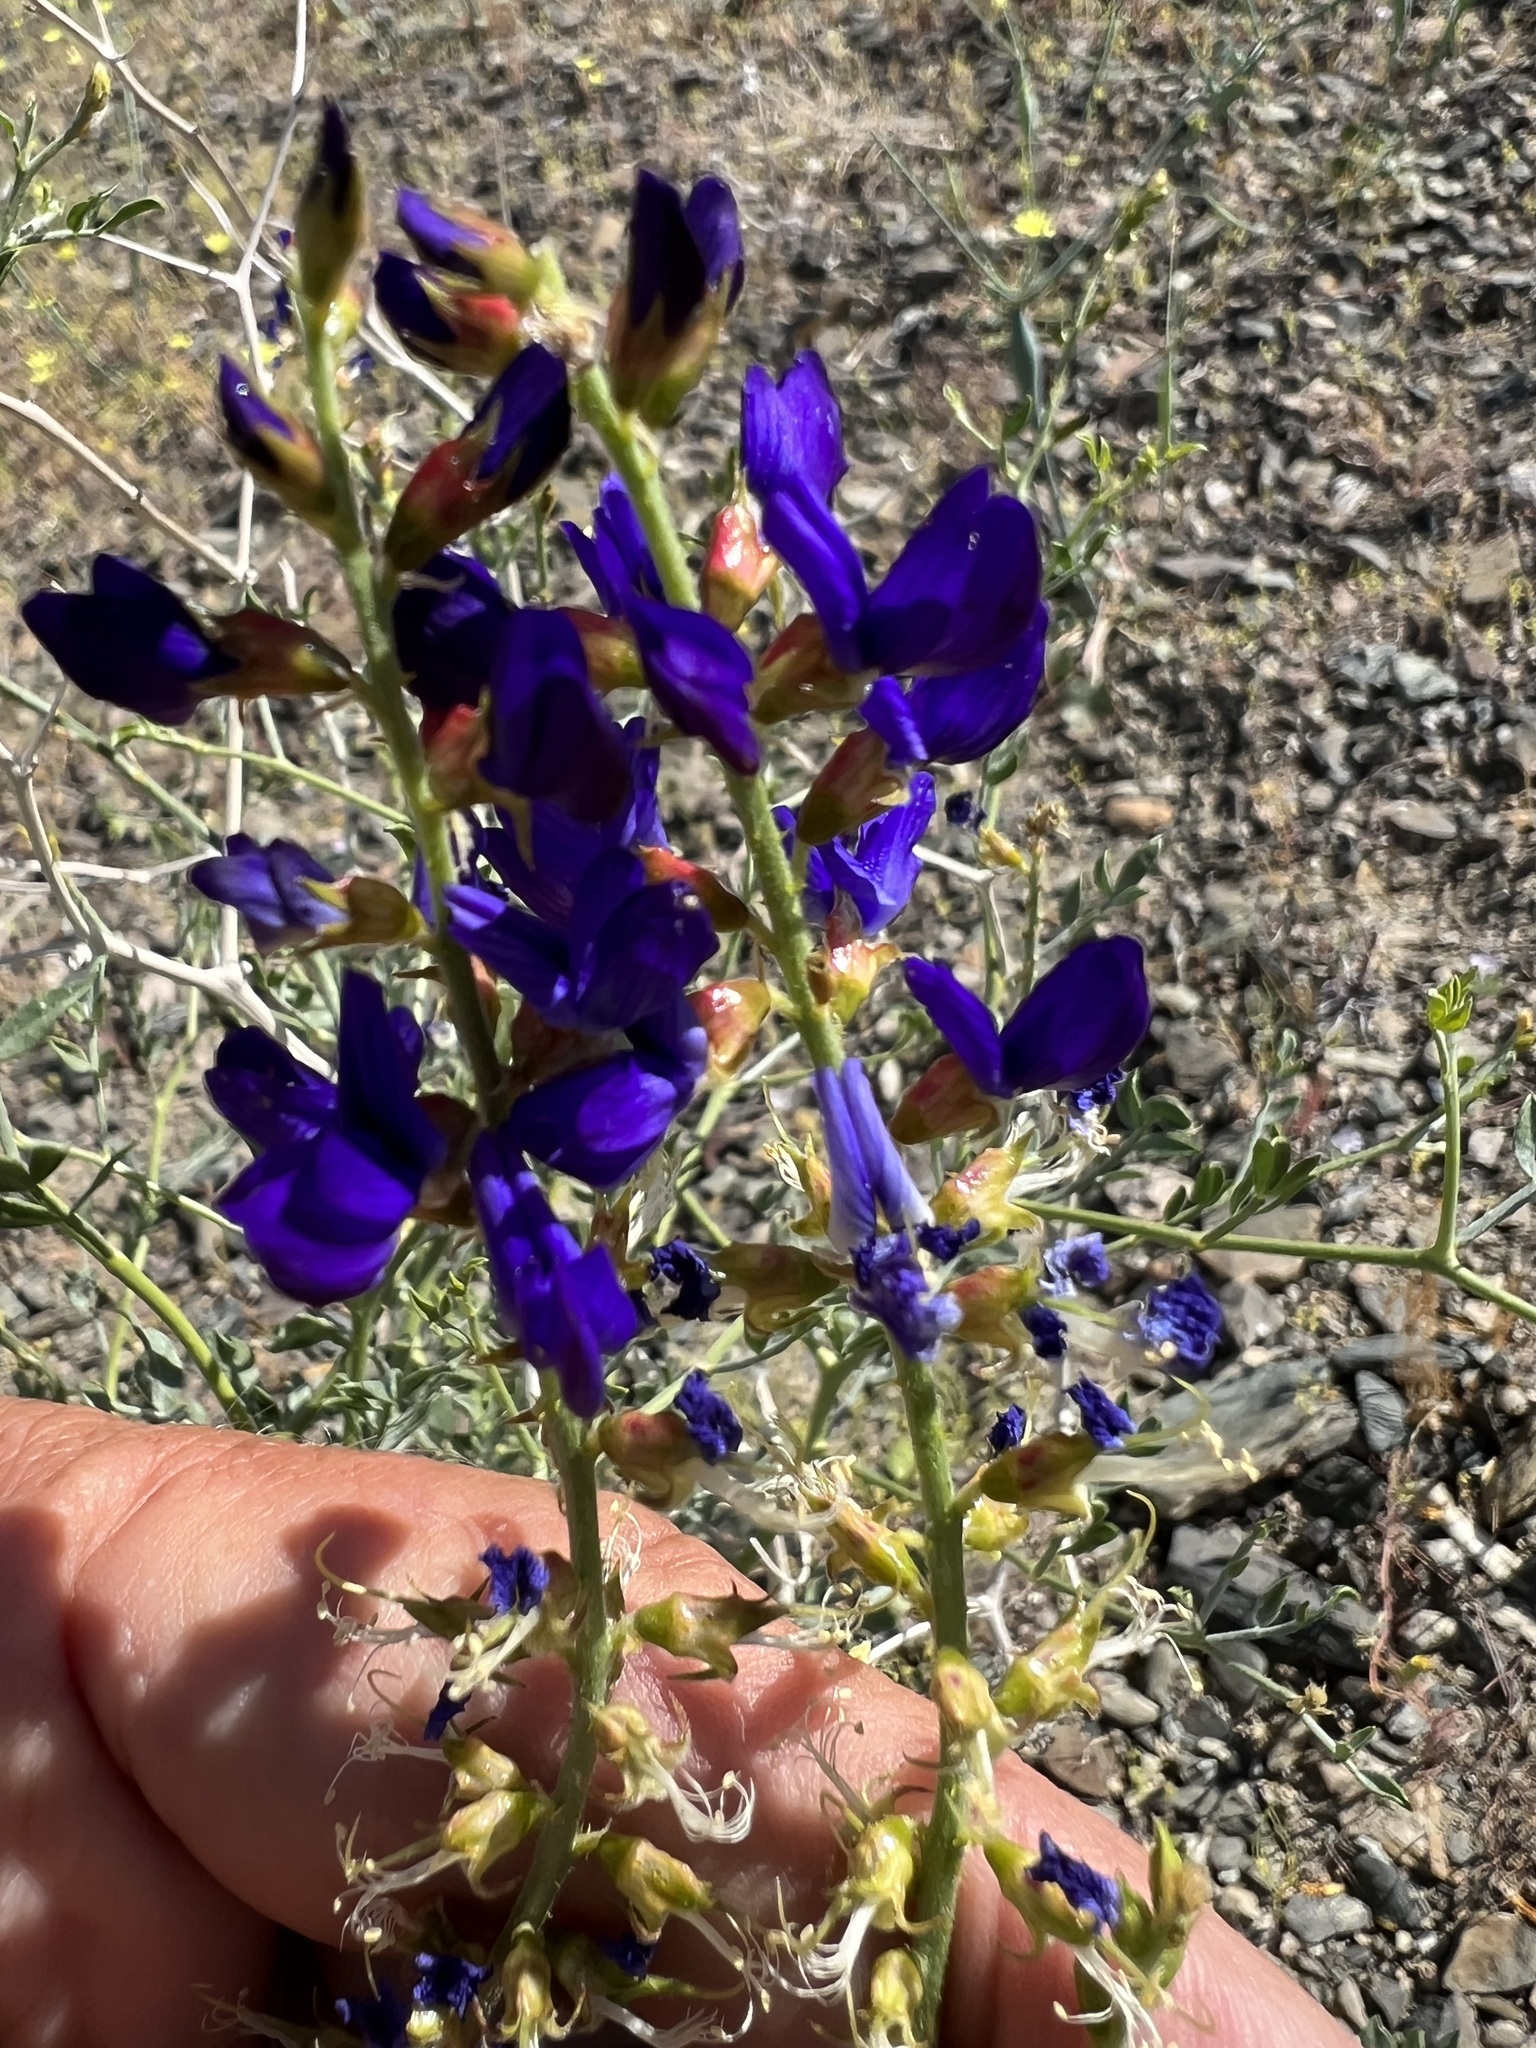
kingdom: Plantae
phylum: Tracheophyta
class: Magnoliopsida
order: Fabales
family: Fabaceae
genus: Psorothamnus
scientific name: Psorothamnus arborescens
